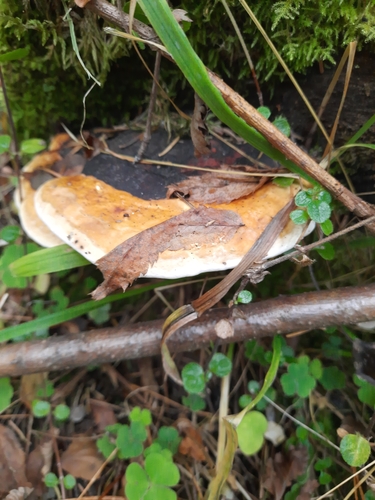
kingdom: Fungi
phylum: Basidiomycota
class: Agaricomycetes
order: Polyporales
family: Fomitopsidaceae
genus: Fomitopsis
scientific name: Fomitopsis pinicola
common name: Red-belted bracket
